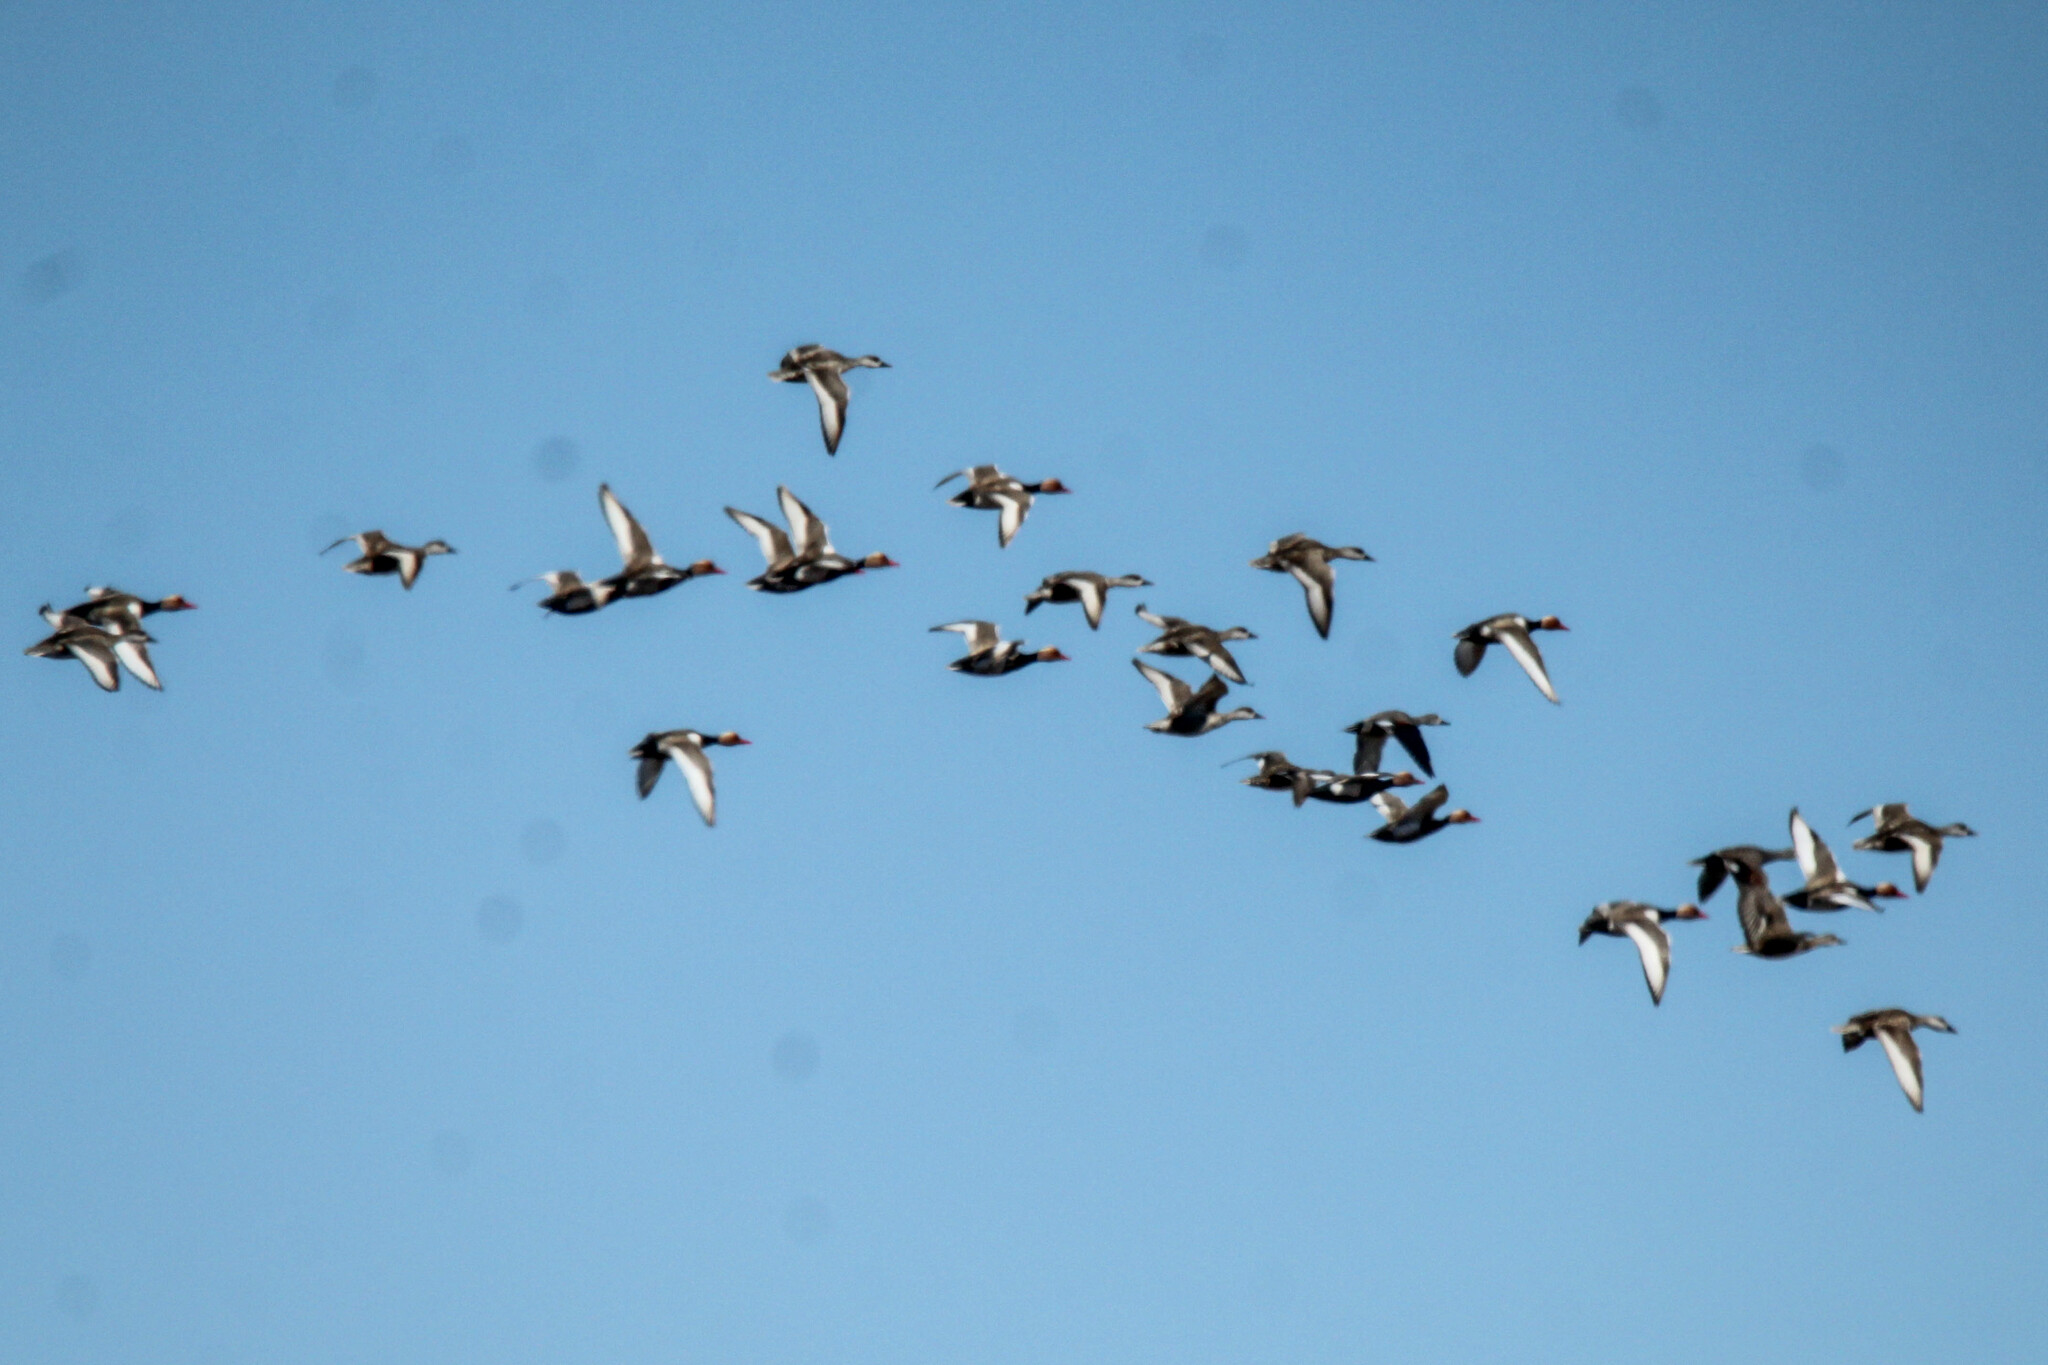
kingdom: Animalia
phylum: Chordata
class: Aves
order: Anseriformes
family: Anatidae
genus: Netta
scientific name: Netta rufina
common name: Red-crested pochard
